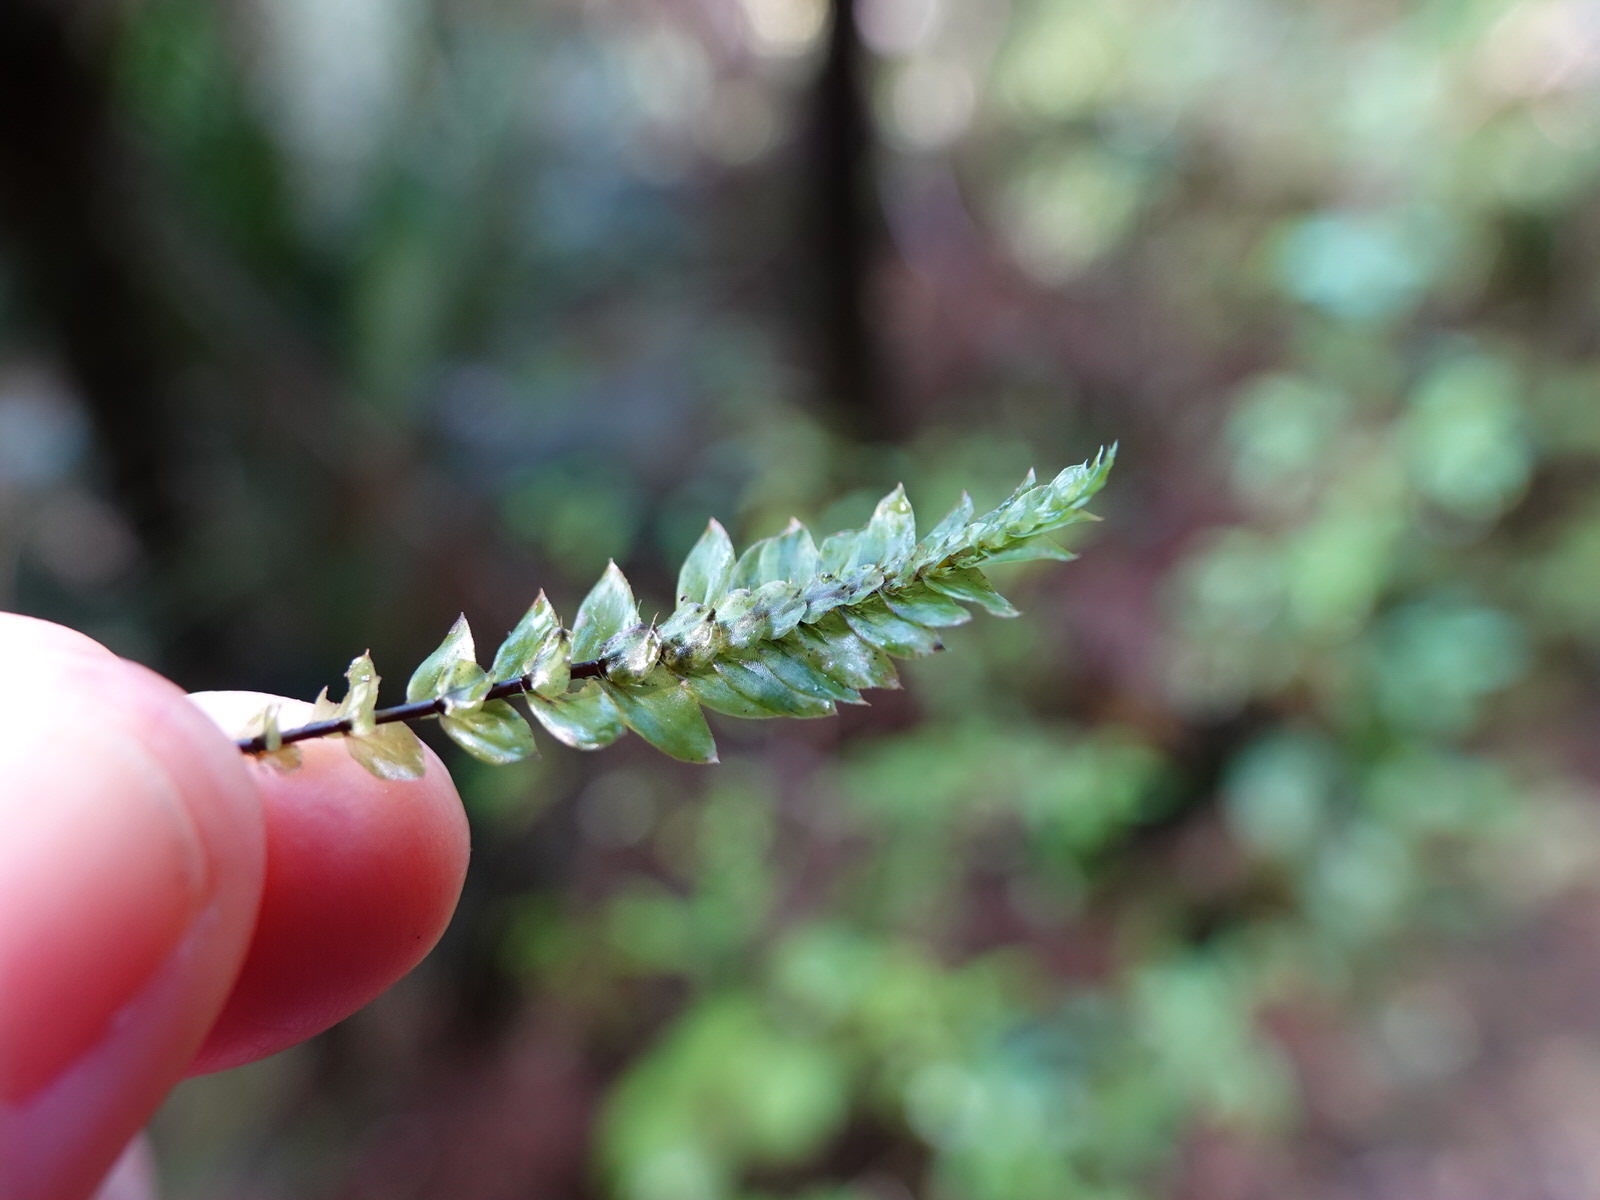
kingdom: Plantae
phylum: Bryophyta
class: Bryopsida
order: Hypopterygiales
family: Hypopterygiaceae
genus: Cyathophorum
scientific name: Cyathophorum bulbosum
